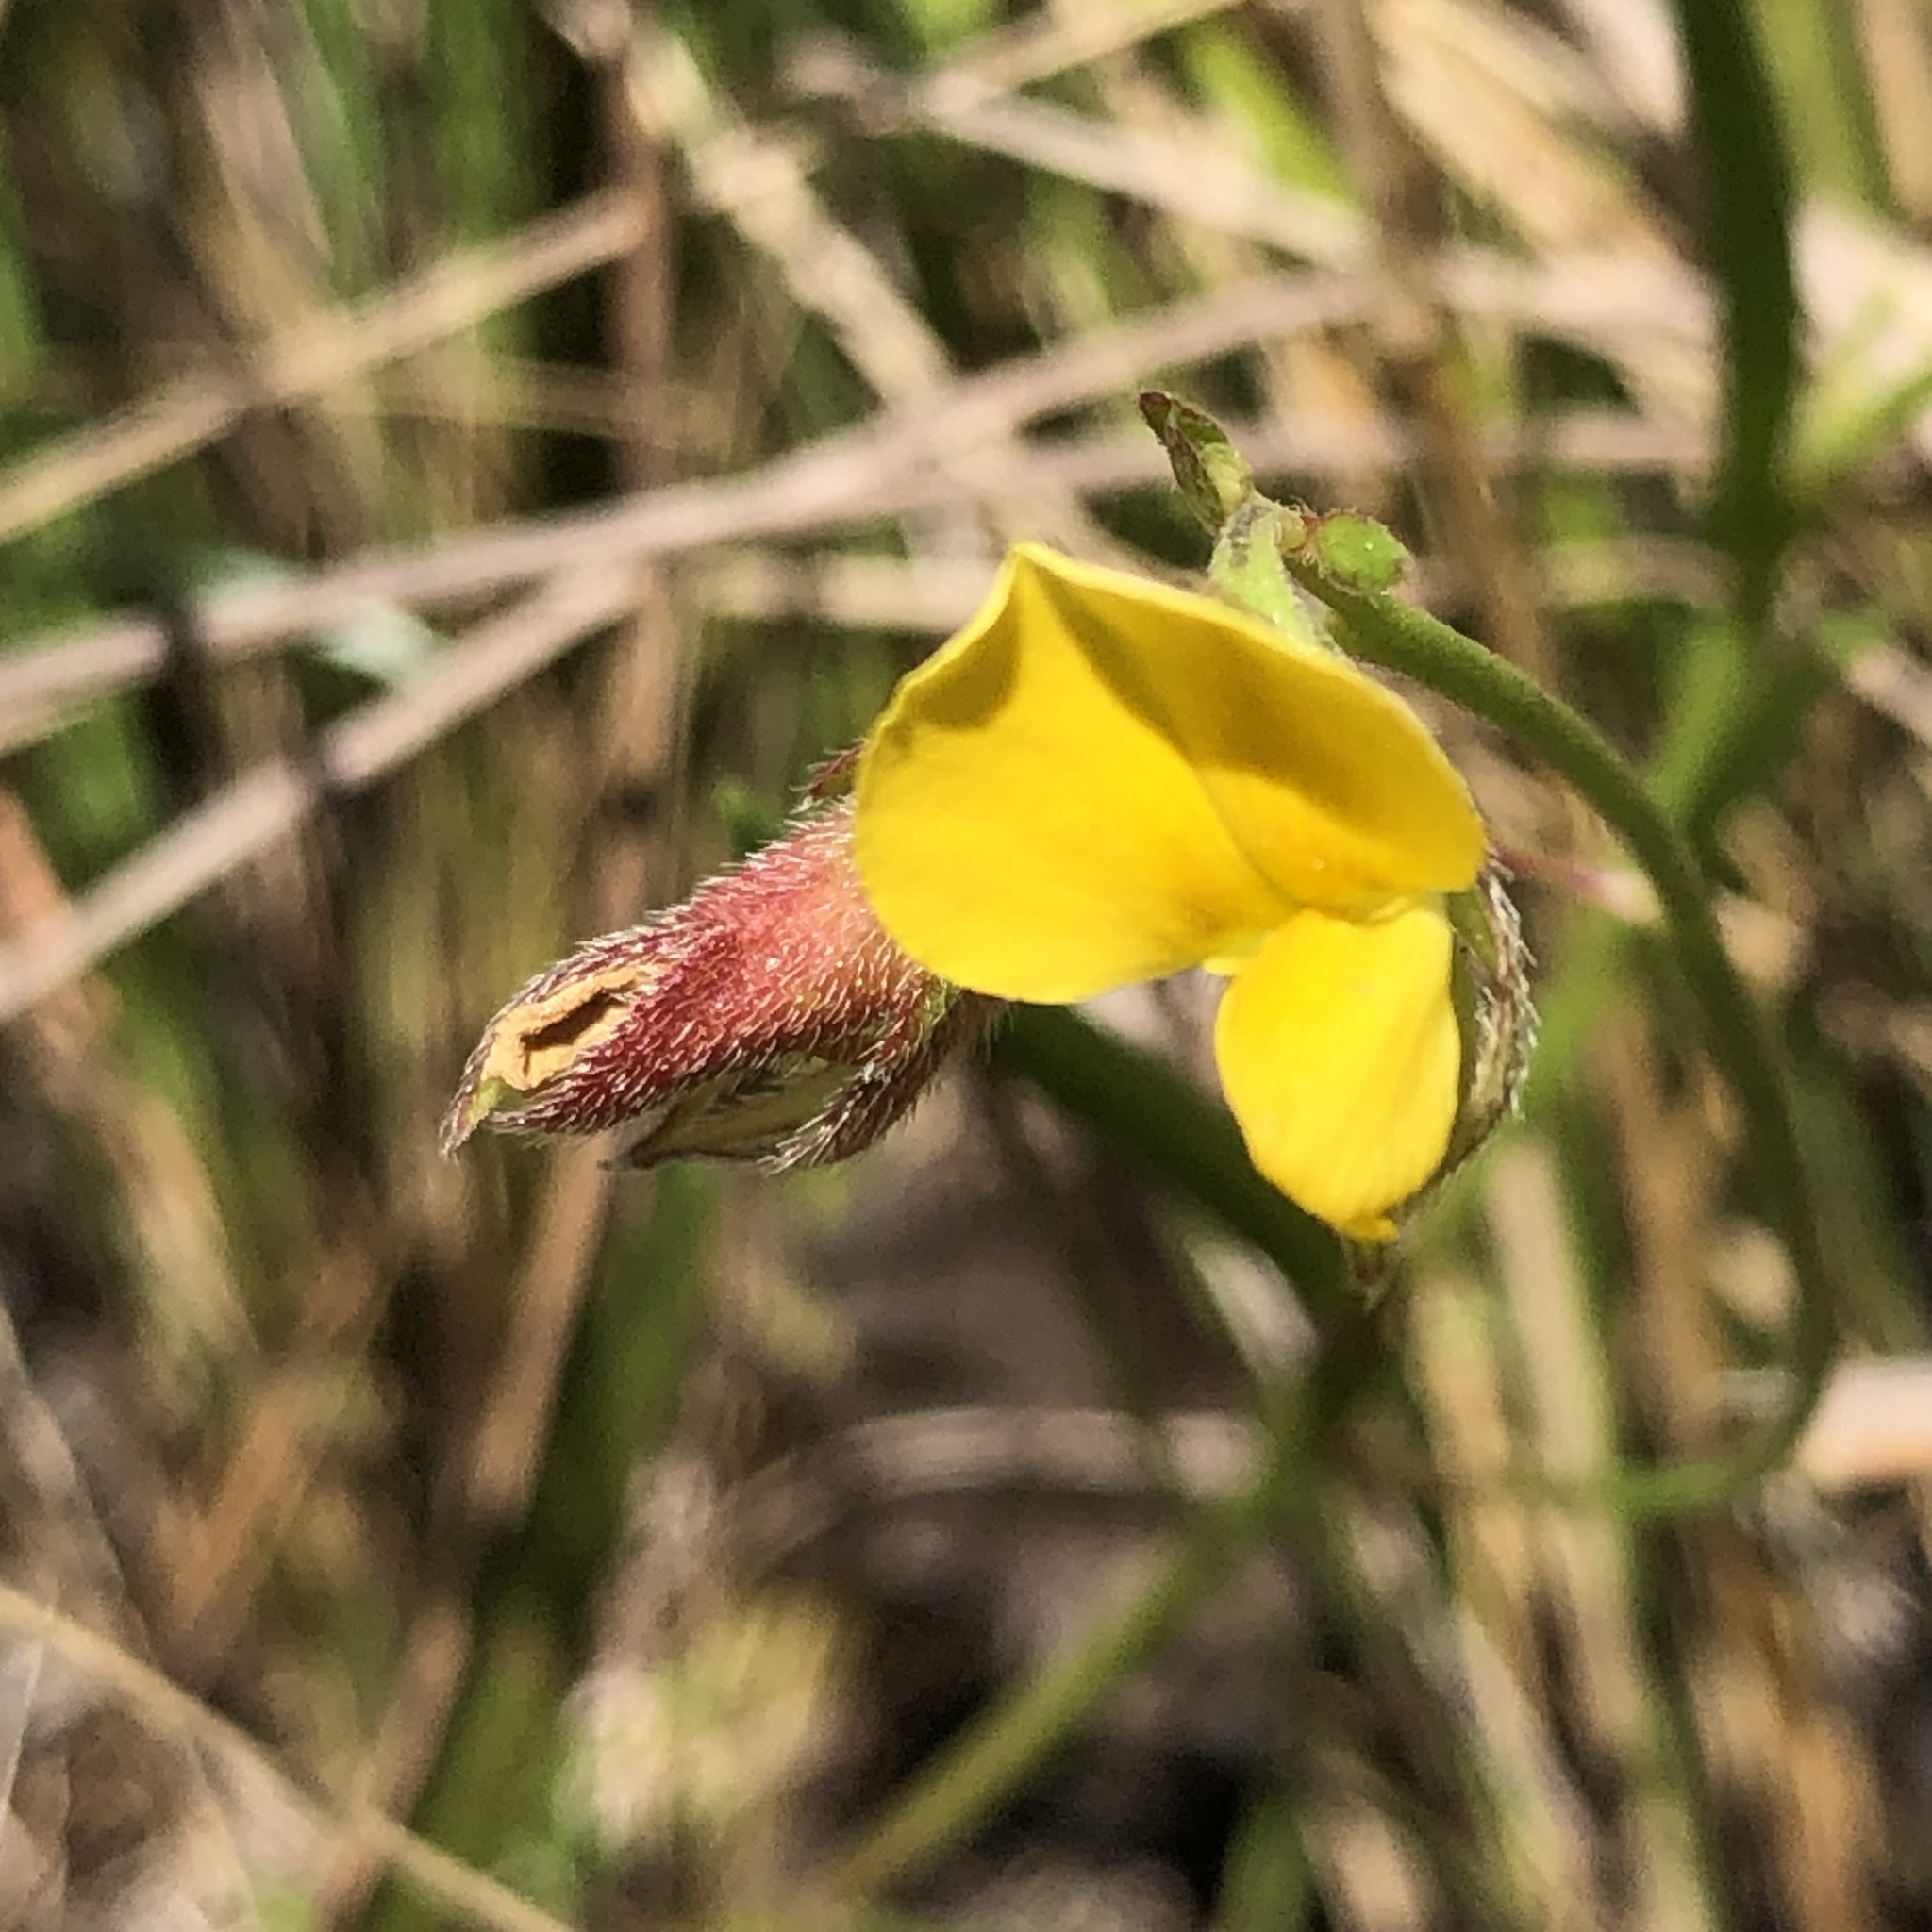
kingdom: Plantae
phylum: Tracheophyta
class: Magnoliopsida
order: Fabales
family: Fabaceae
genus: Crotalaria
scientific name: Crotalaria rotundifolia
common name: Prostrate rattlebox
